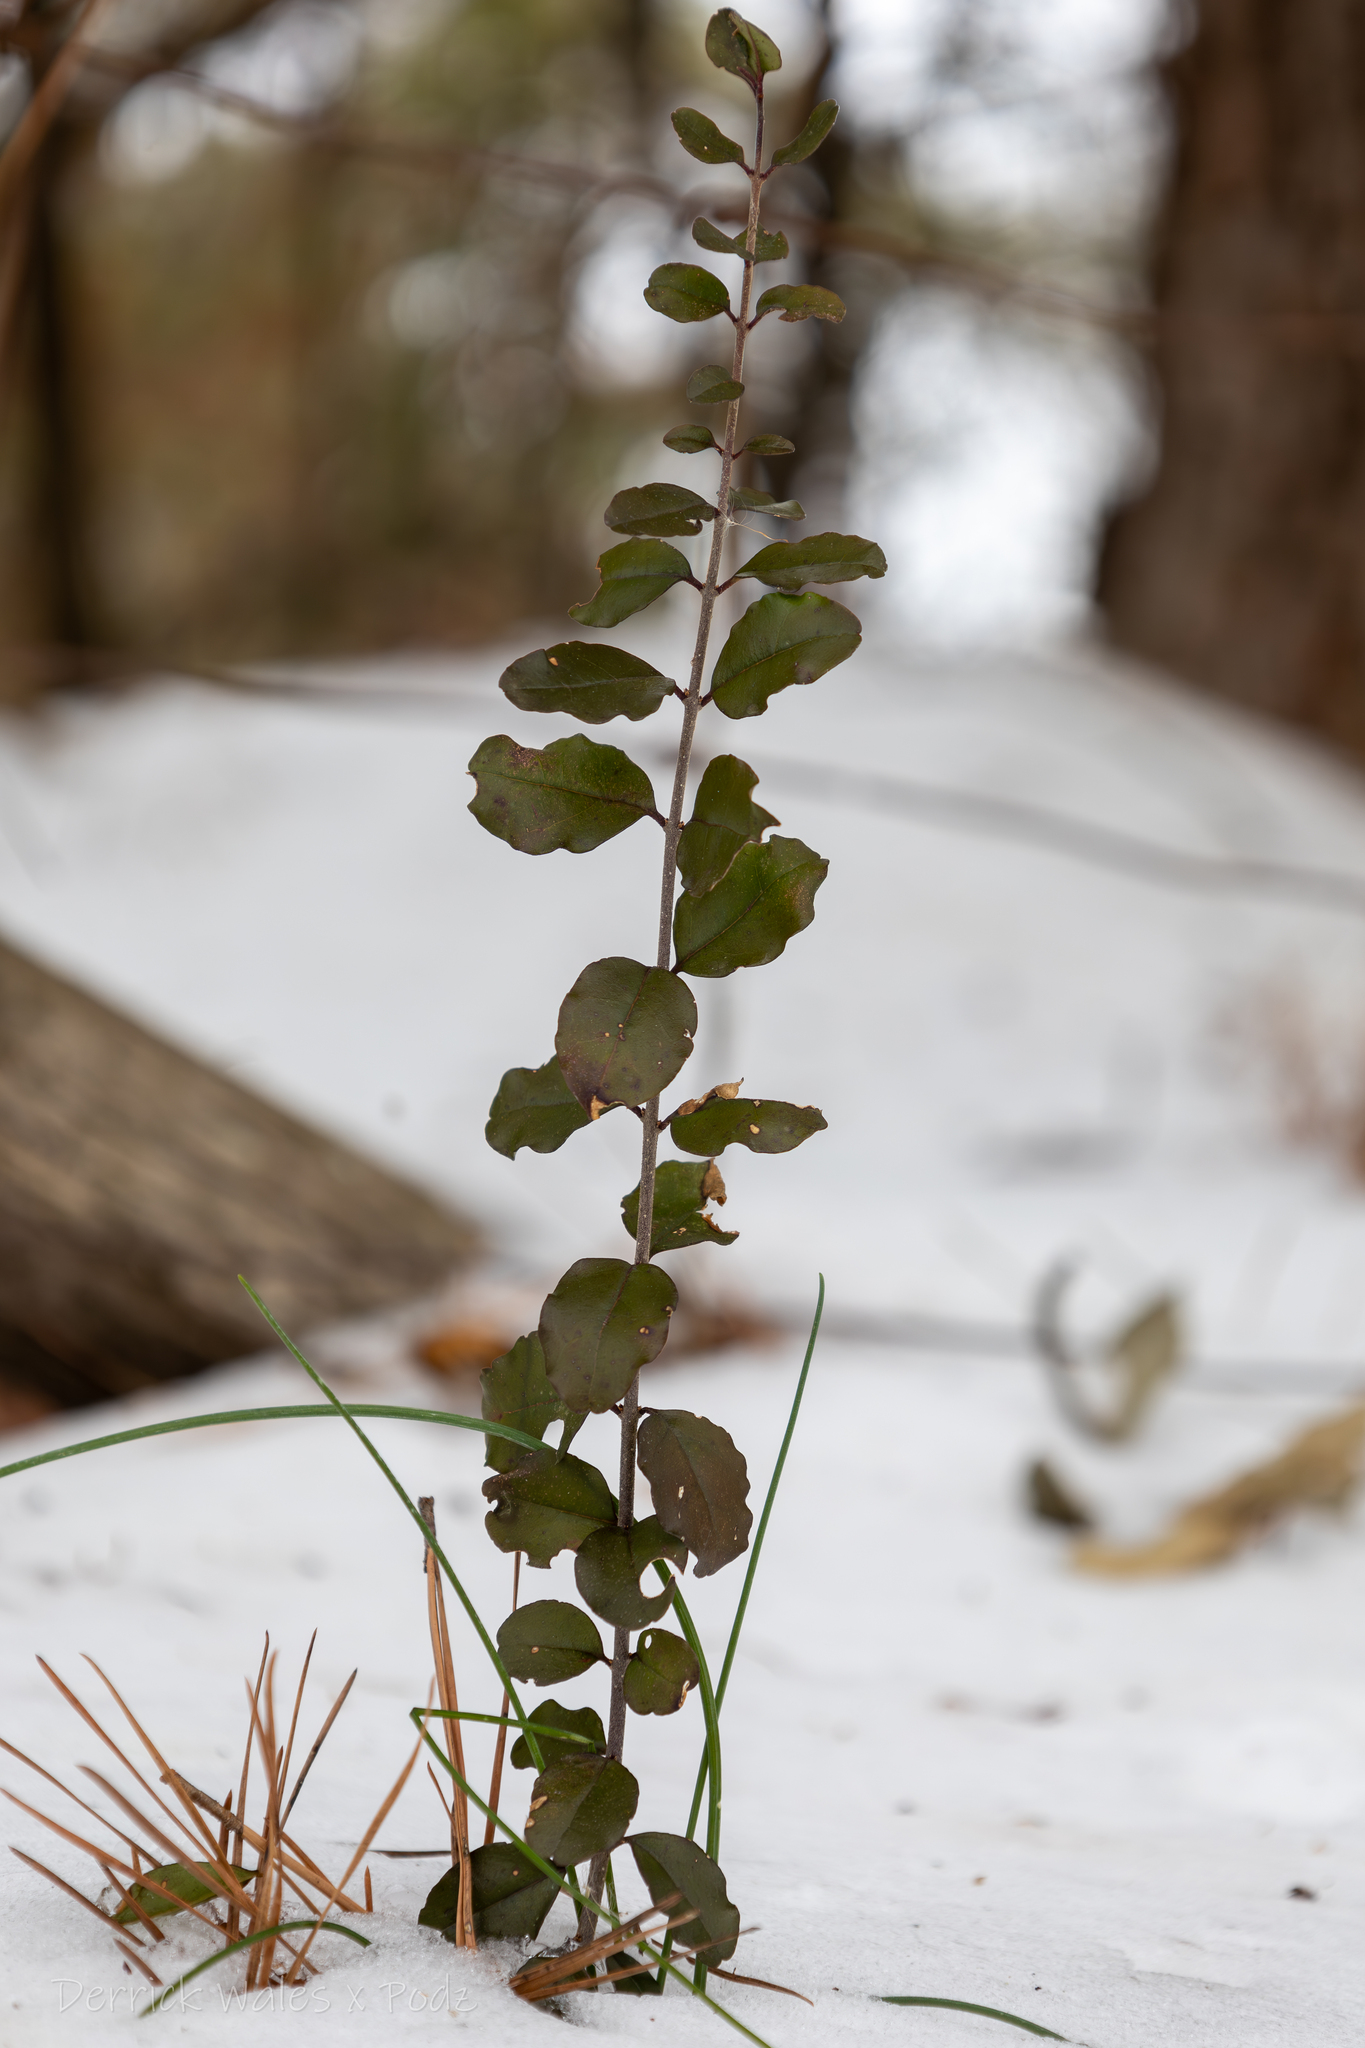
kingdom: Plantae
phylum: Tracheophyta
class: Magnoliopsida
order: Lamiales
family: Oleaceae
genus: Ligustrum
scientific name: Ligustrum sinense
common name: Chinese privet
